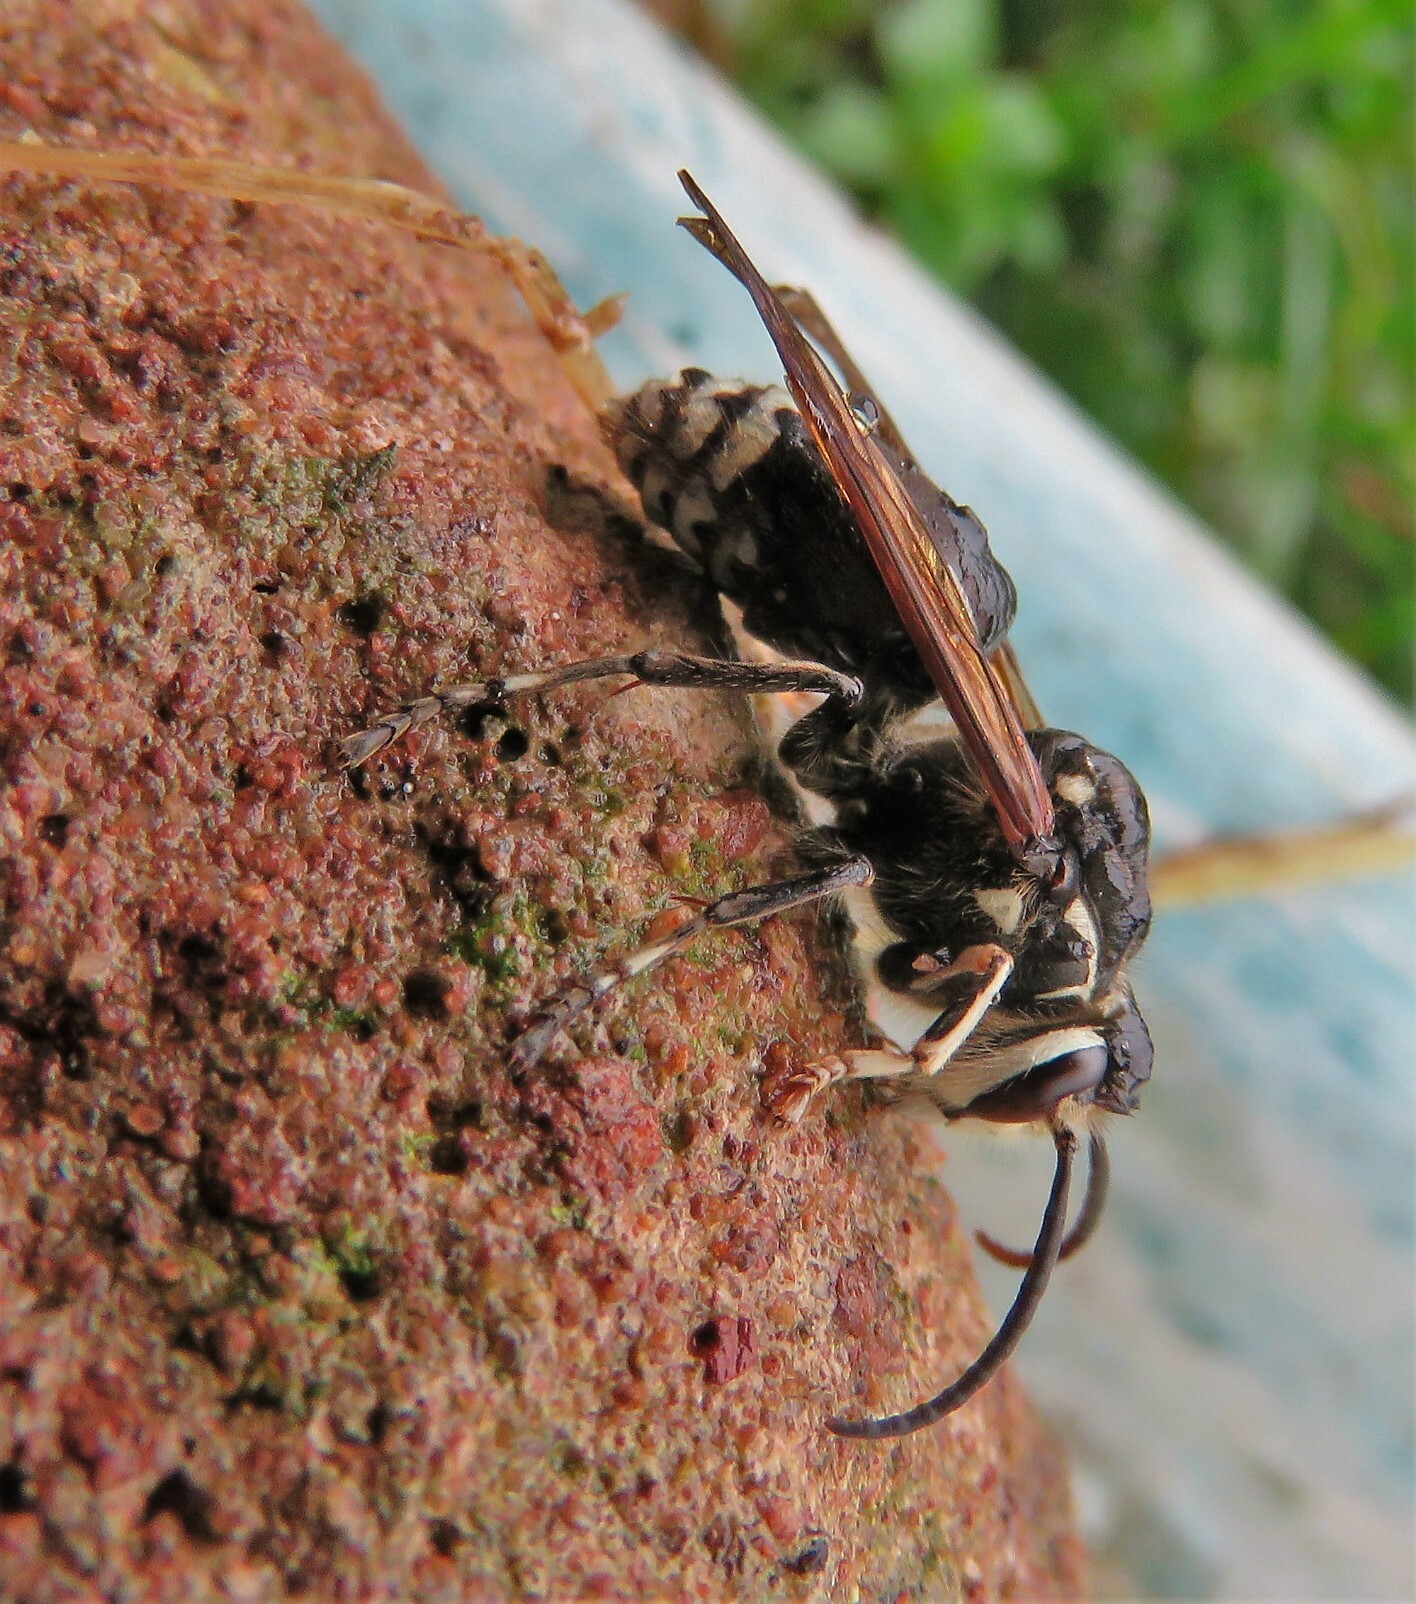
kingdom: Animalia
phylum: Arthropoda
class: Insecta
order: Hymenoptera
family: Vespidae
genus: Dolichovespula
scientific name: Dolichovespula maculata
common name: Bald-faced hornet
